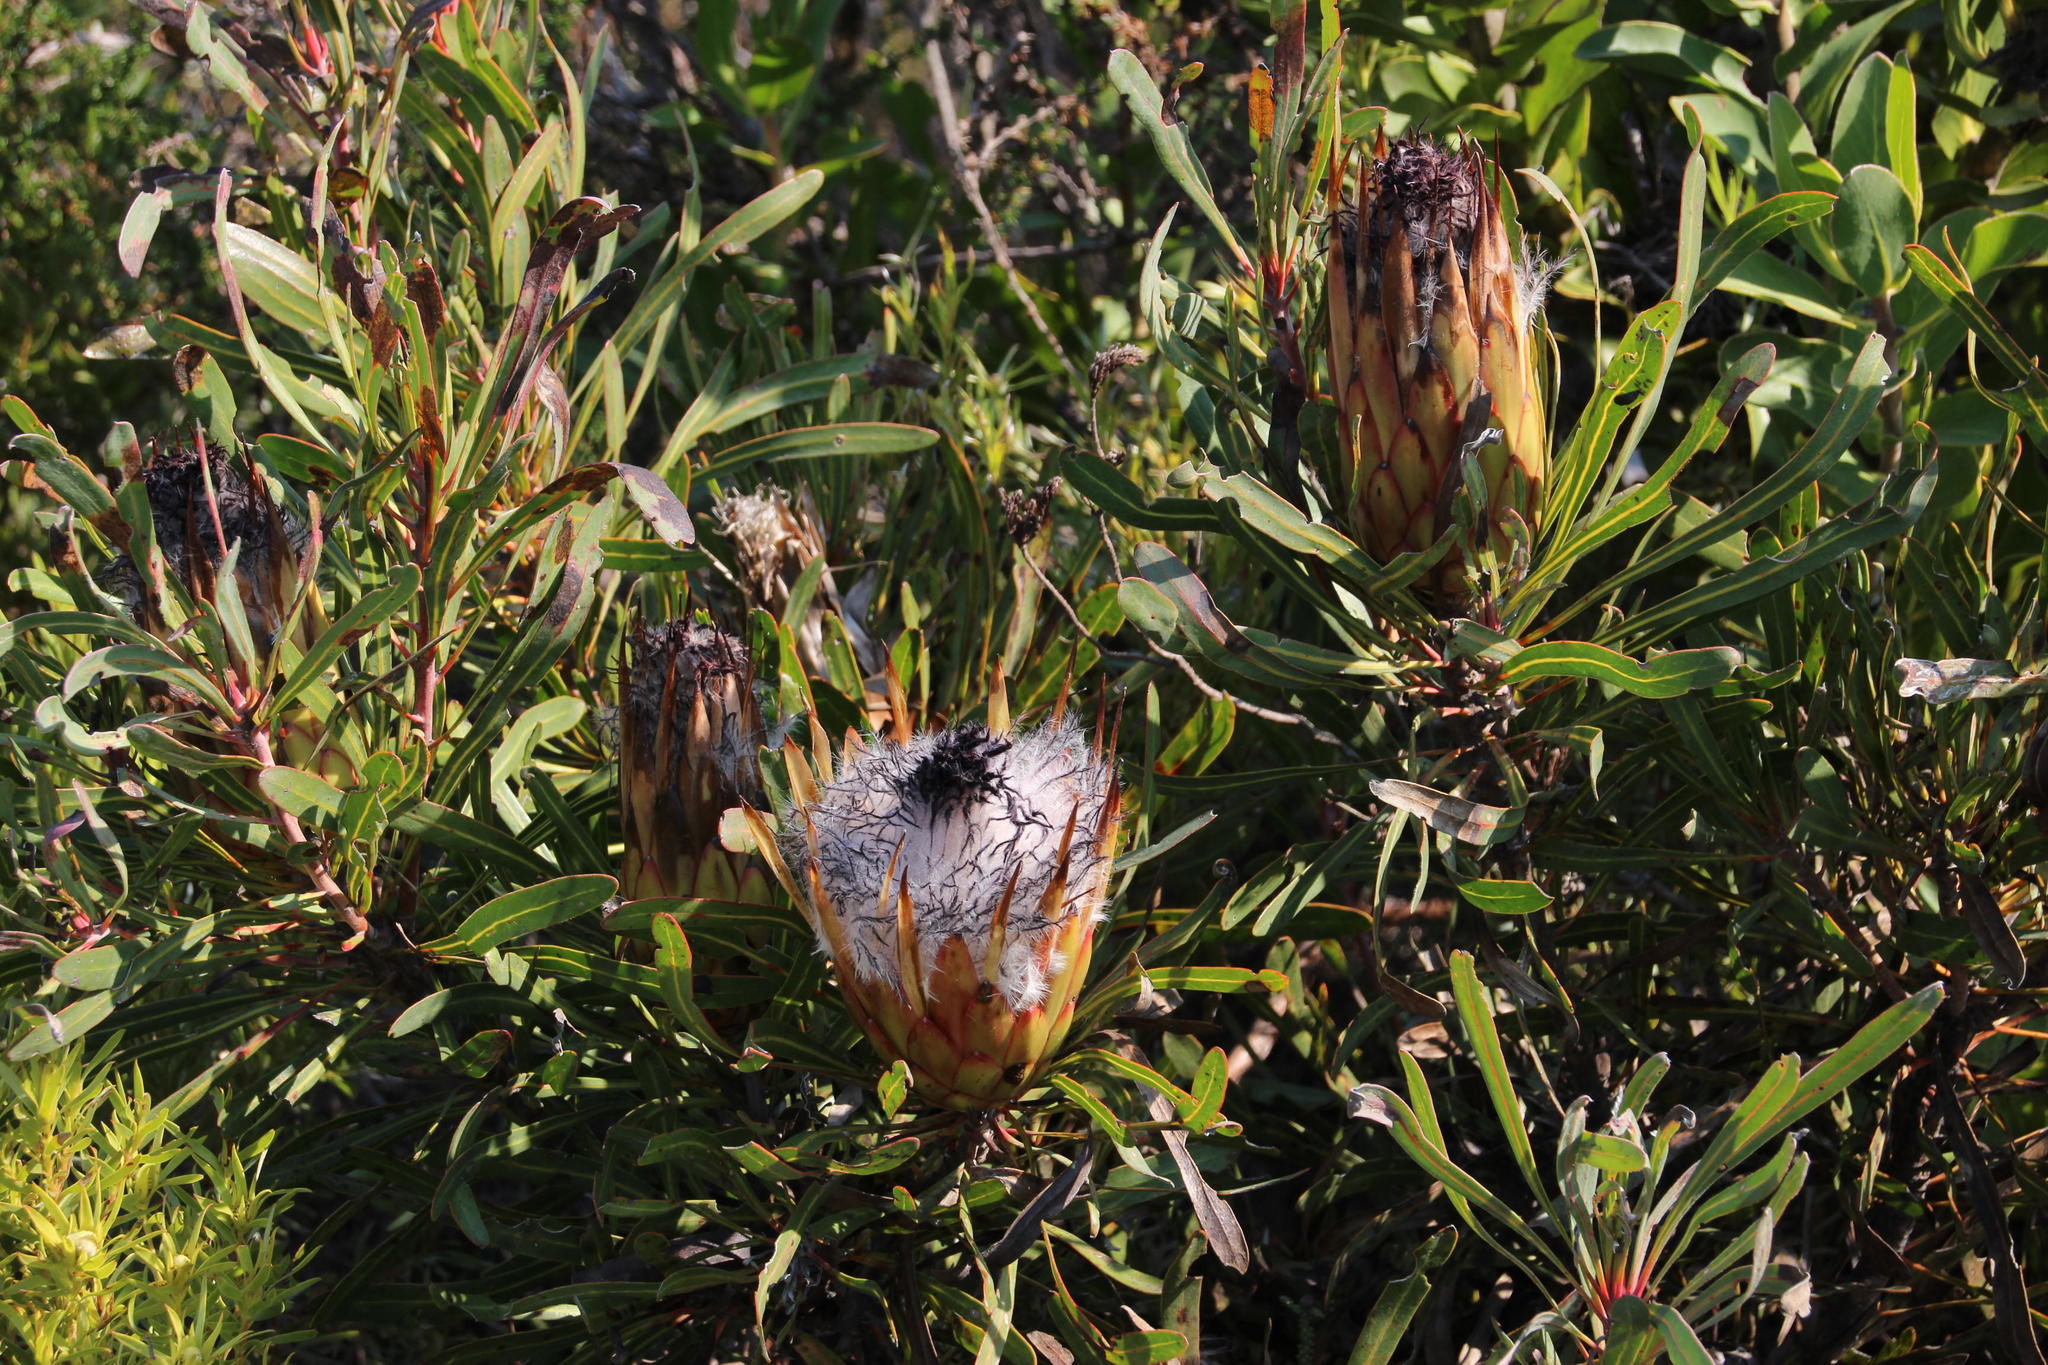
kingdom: Plantae
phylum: Tracheophyta
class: Magnoliopsida
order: Proteales
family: Proteaceae
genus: Protea
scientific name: Protea longifolia
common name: Long-leaf sugarbush
